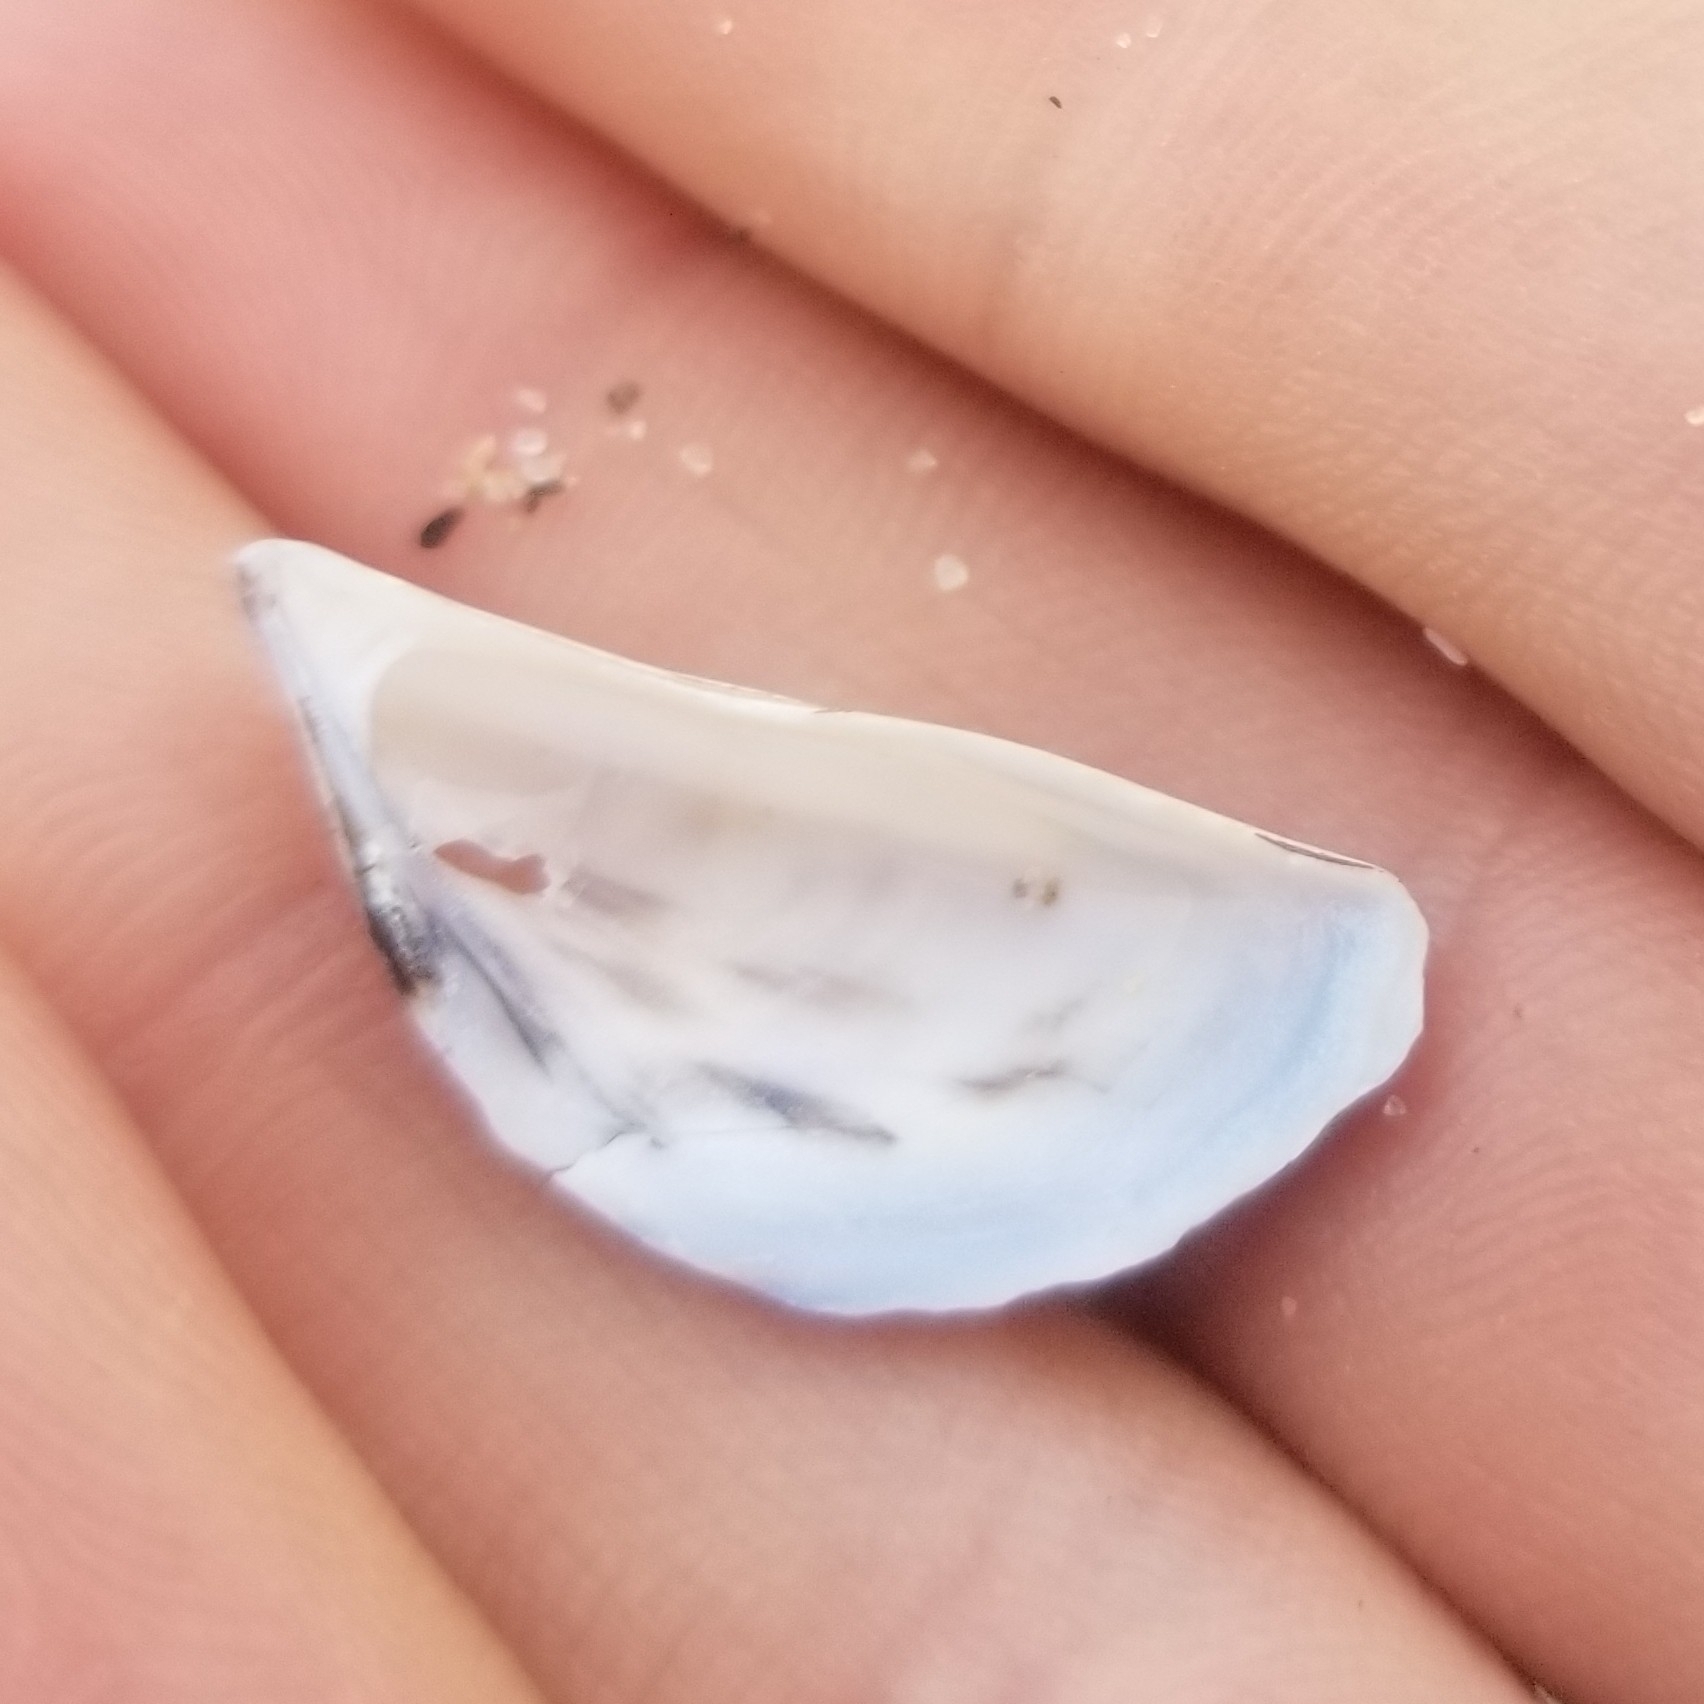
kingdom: Animalia
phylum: Mollusca
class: Bivalvia
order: Myida
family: Dreissenidae
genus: Dreissena
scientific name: Dreissena polymorpha
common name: Zebra mussel
